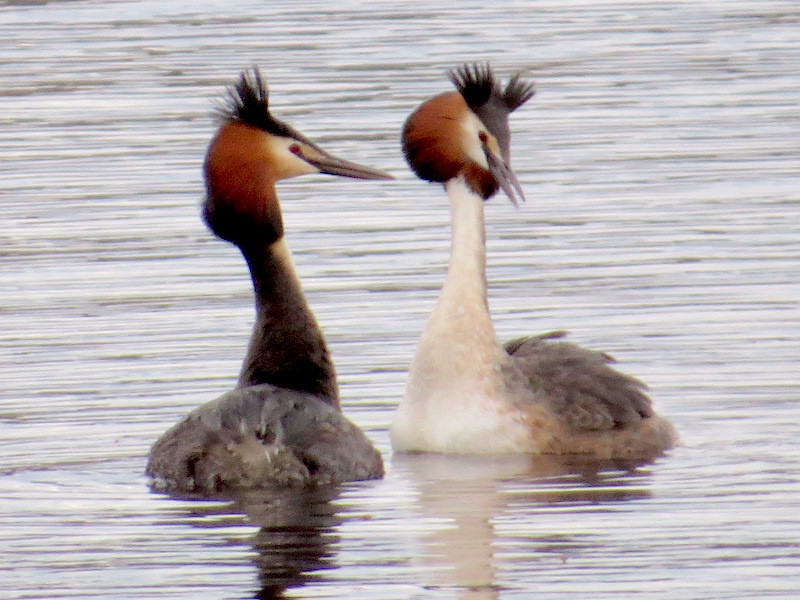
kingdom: Animalia
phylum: Chordata
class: Aves
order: Podicipediformes
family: Podicipedidae
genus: Podiceps
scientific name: Podiceps cristatus
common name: Great crested grebe
